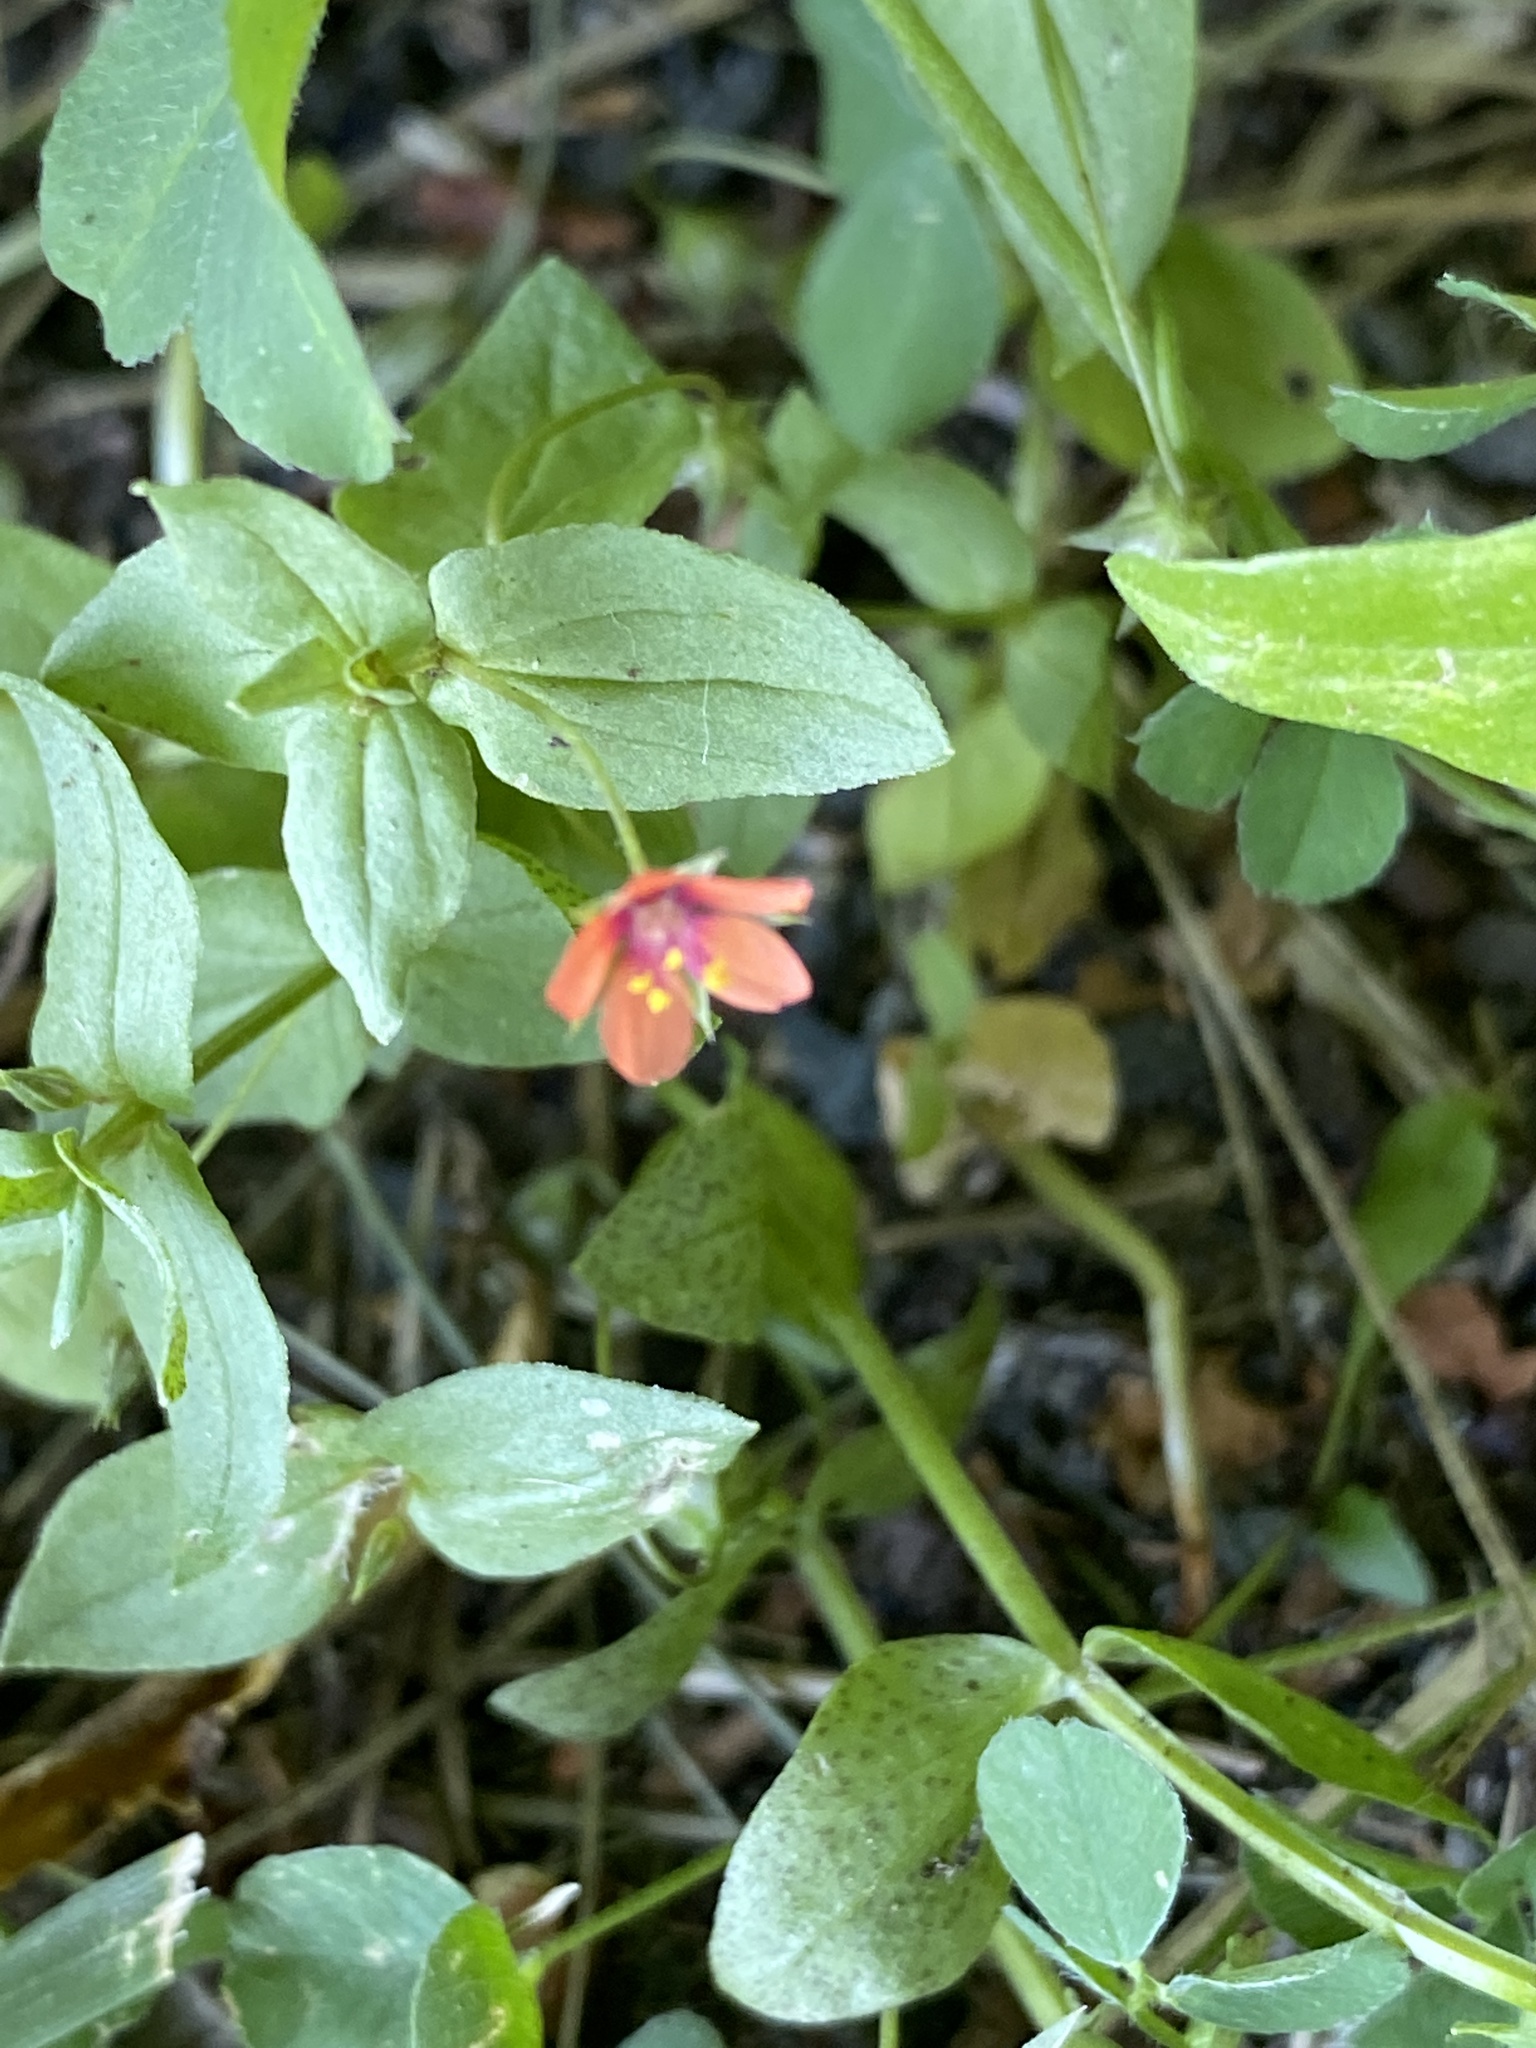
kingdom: Plantae
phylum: Tracheophyta
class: Magnoliopsida
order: Ericales
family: Primulaceae
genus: Lysimachia
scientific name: Lysimachia arvensis
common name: Scarlet pimpernel
